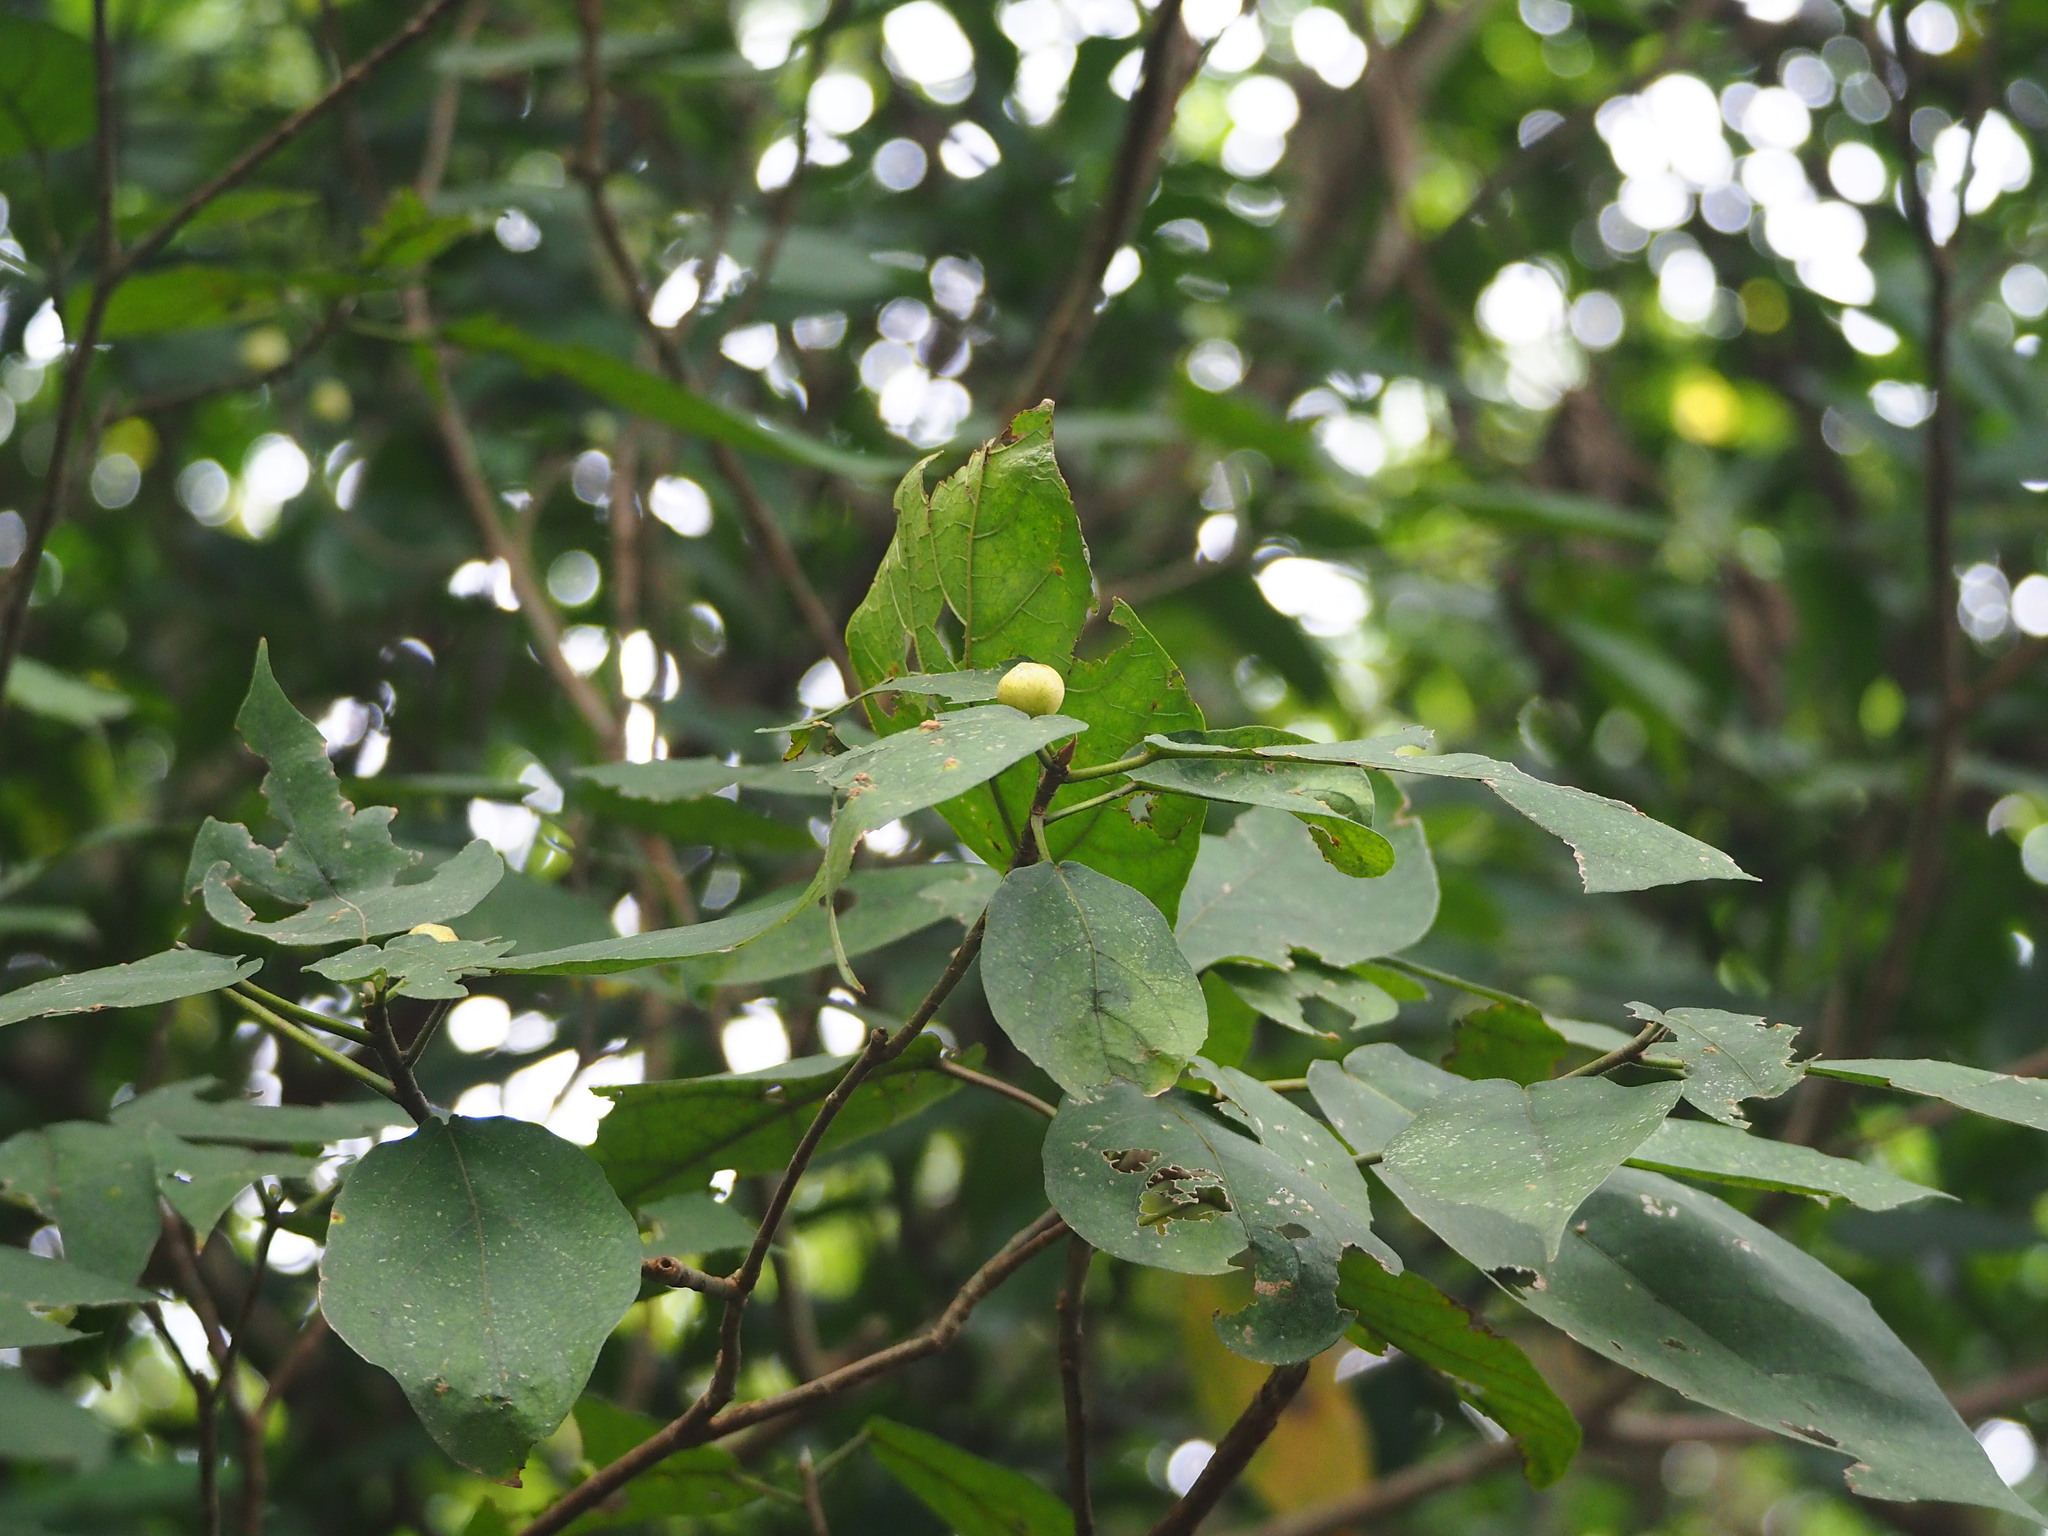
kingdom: Plantae
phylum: Tracheophyta
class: Magnoliopsida
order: Rosales
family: Moraceae
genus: Ficus
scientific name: Ficus erecta
